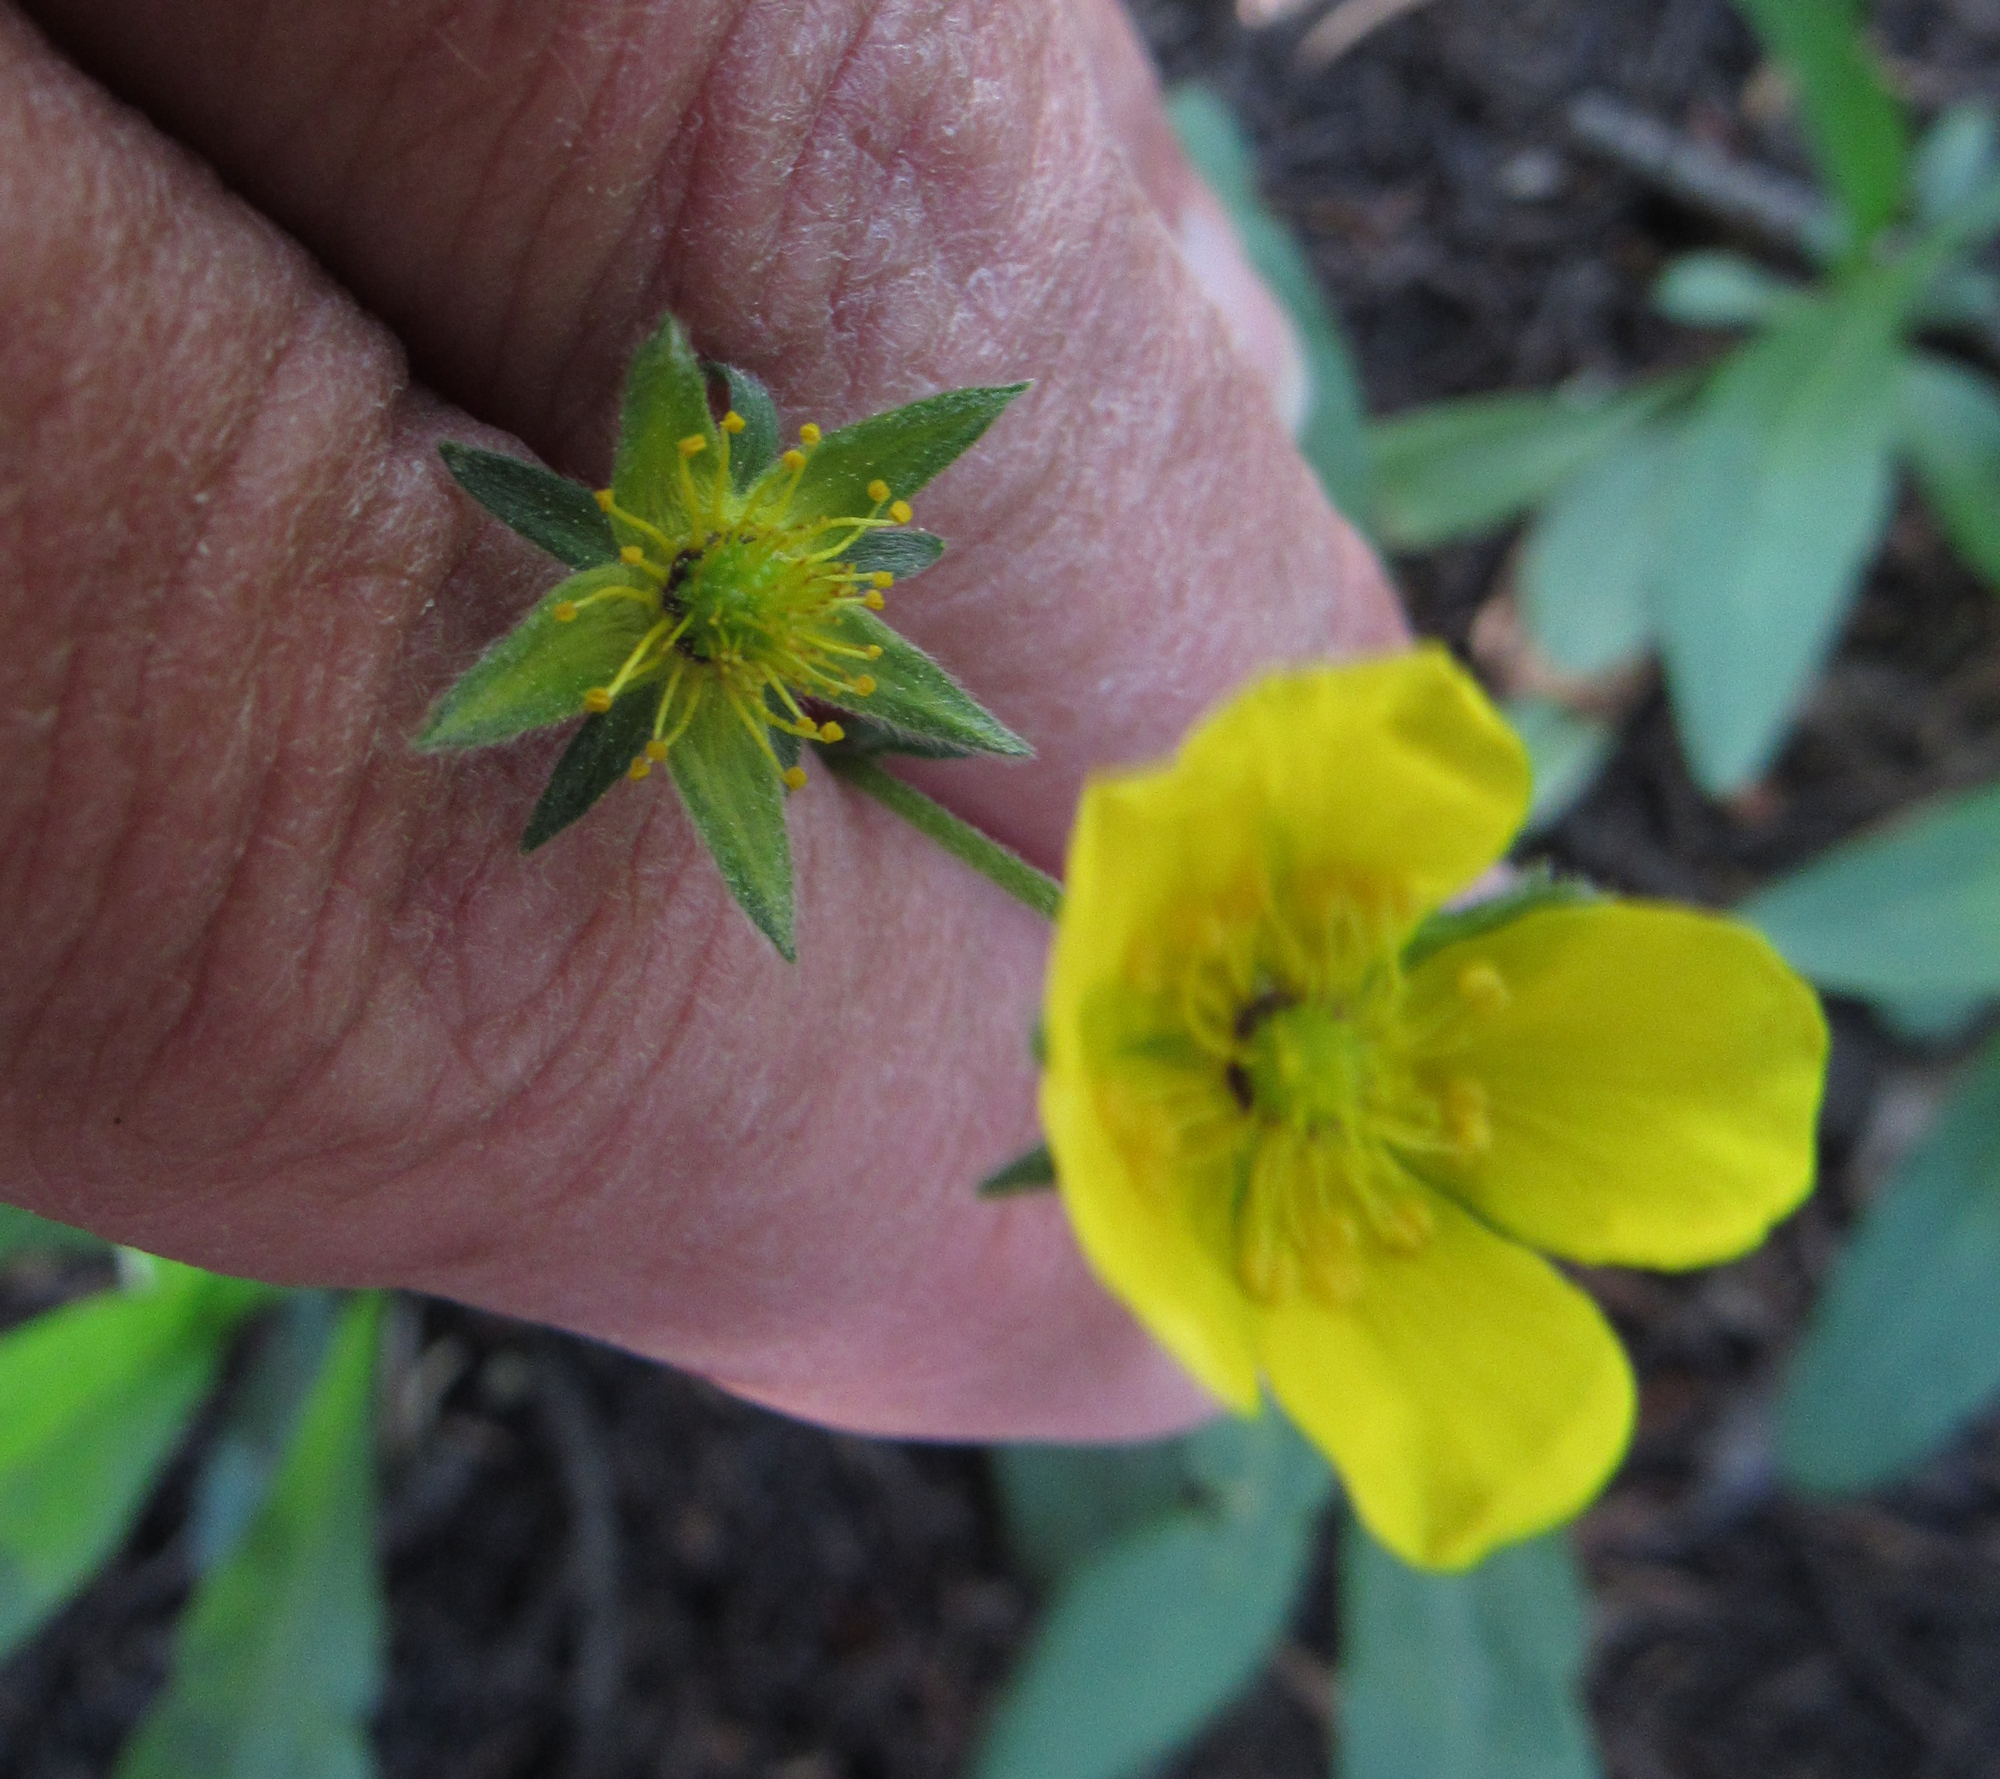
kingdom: Plantae
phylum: Tracheophyta
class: Magnoliopsida
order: Rosales
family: Rosaceae
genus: Potentilla
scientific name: Potentilla glaucophylla
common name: Blue-leaved cinquefoil
